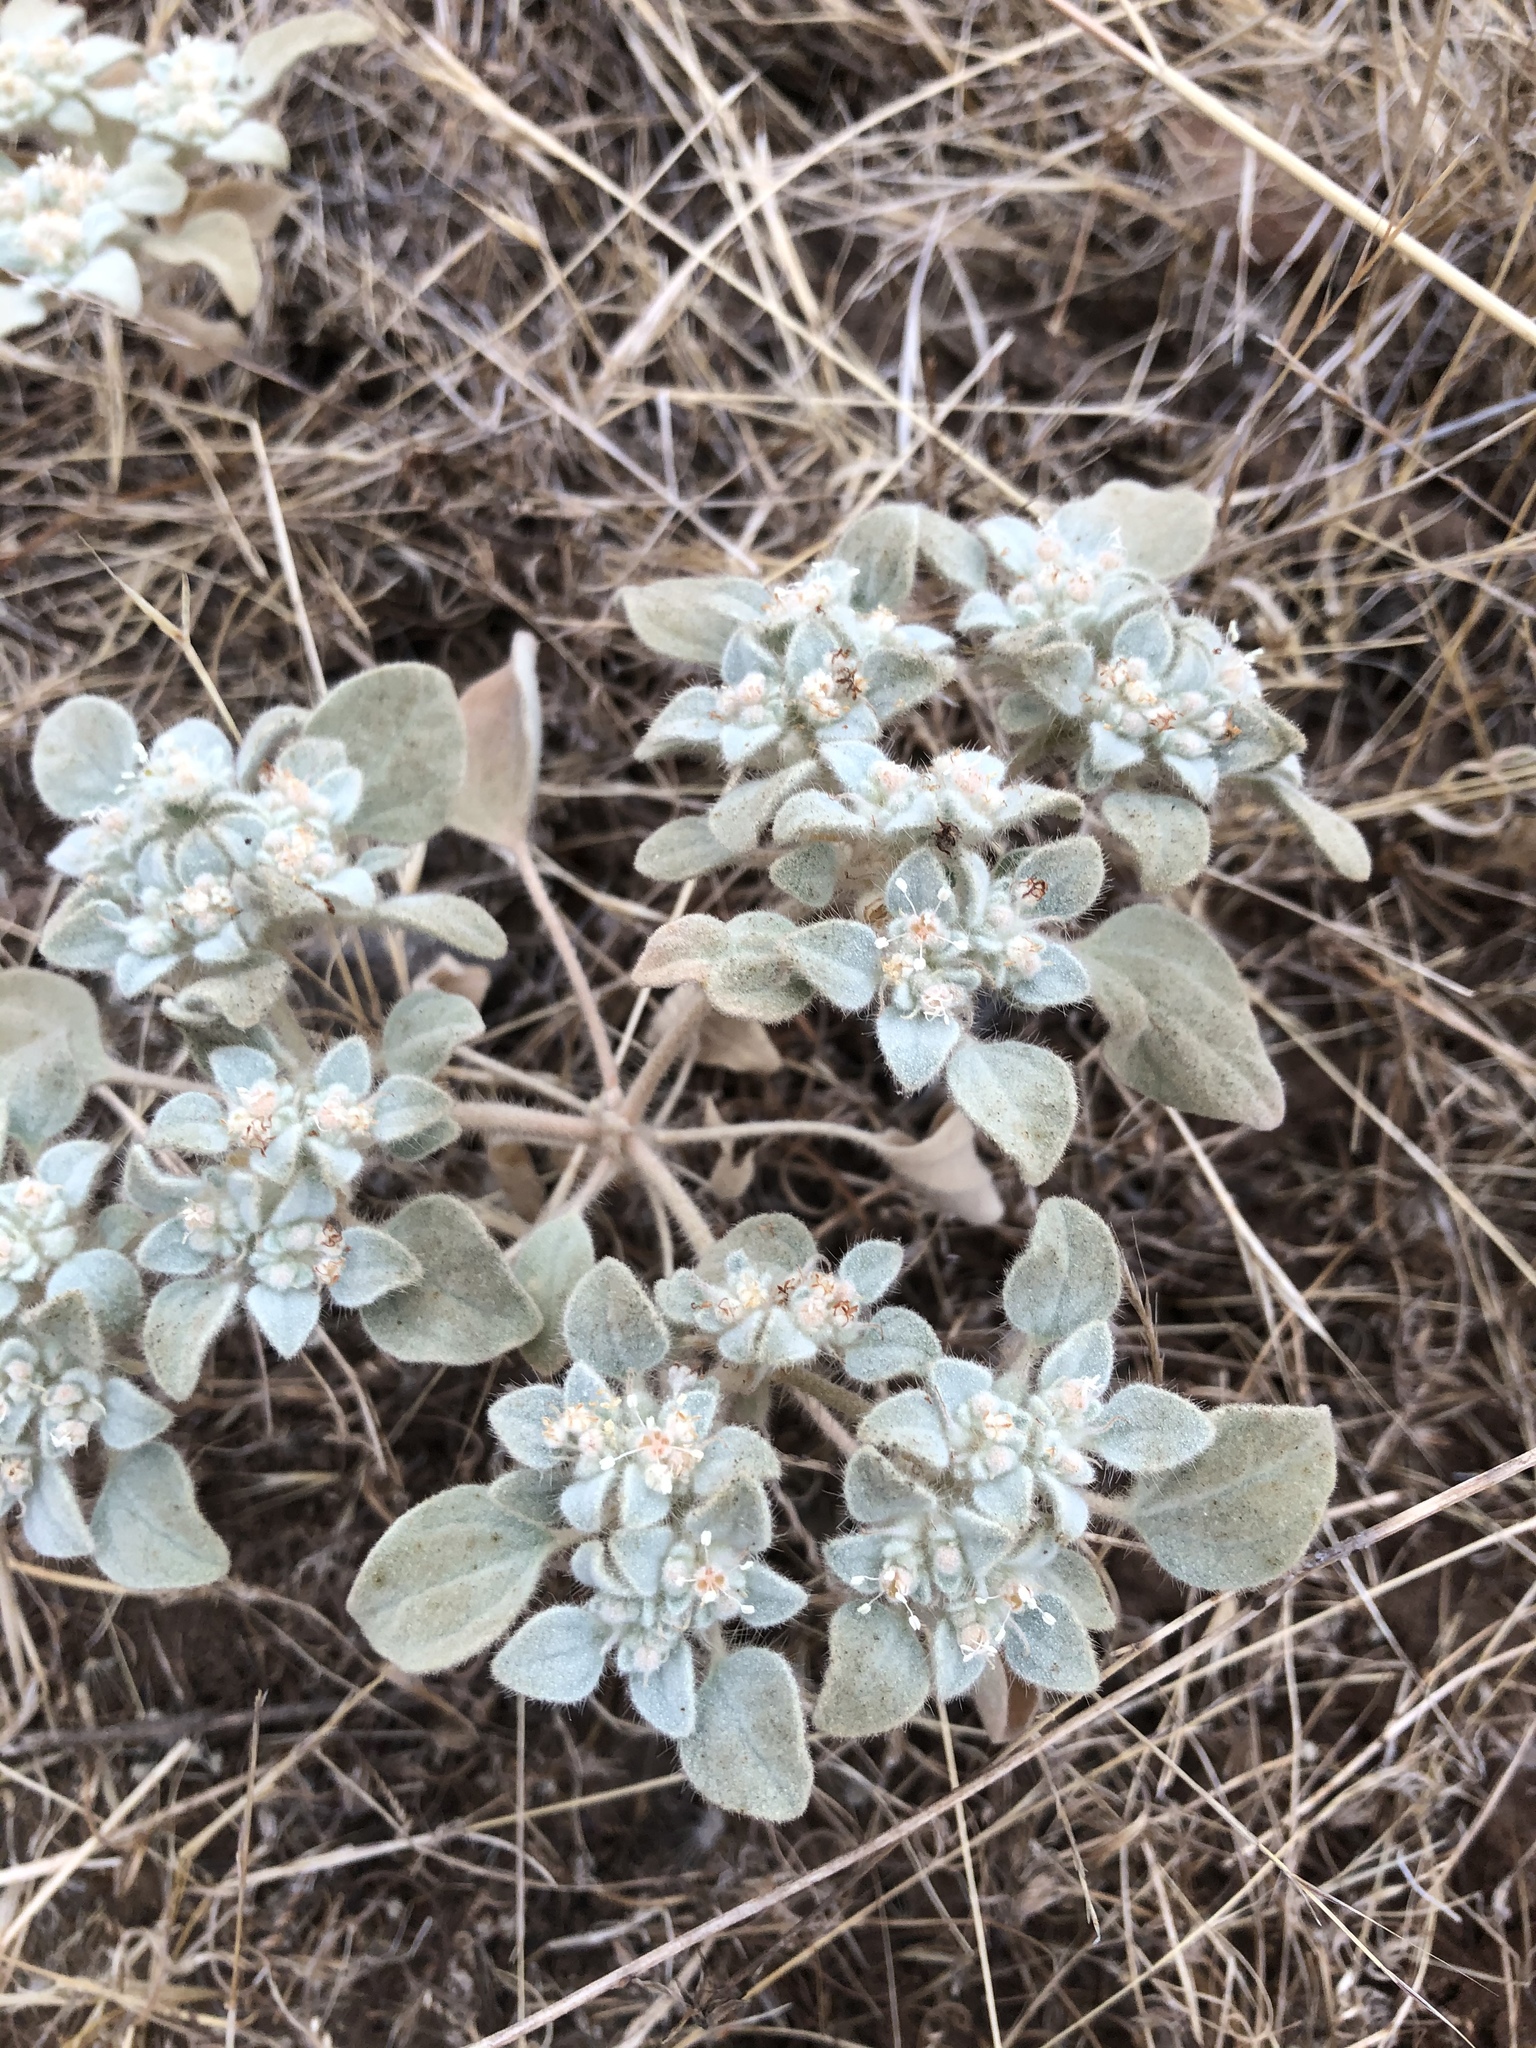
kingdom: Plantae
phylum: Tracheophyta
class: Magnoliopsida
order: Malpighiales
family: Euphorbiaceae
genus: Croton
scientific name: Croton setiger
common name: Dove weed
